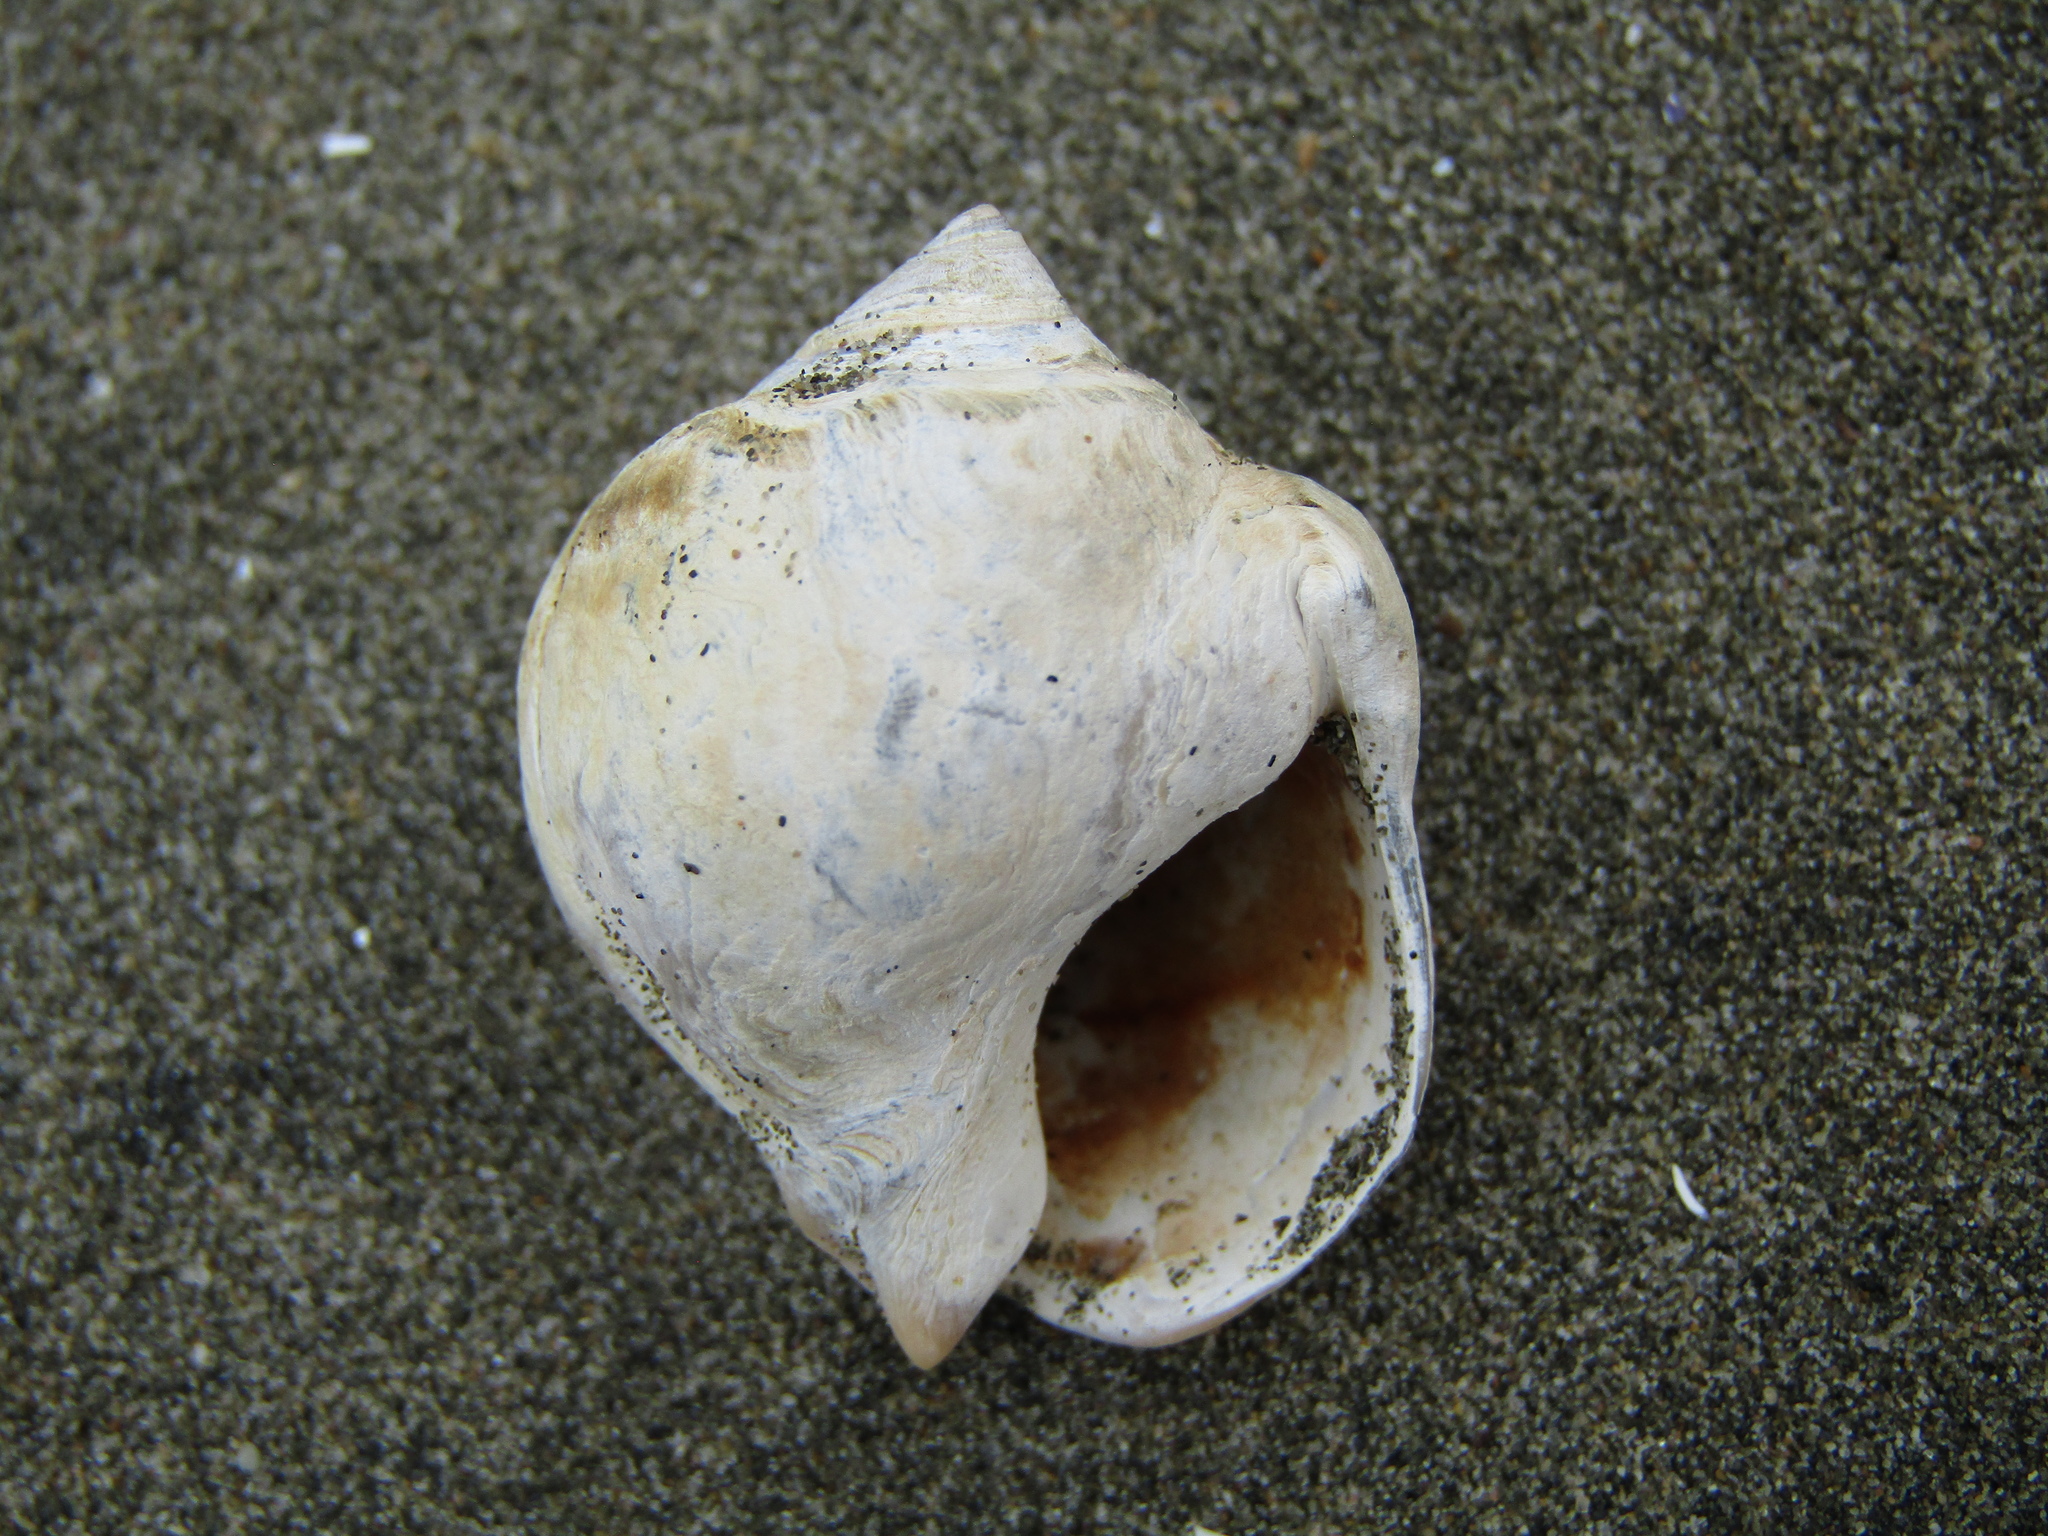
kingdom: Animalia
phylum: Mollusca
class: Gastropoda
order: Neogastropoda
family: Cominellidae
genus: Cominella
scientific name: Cominella adspersa
